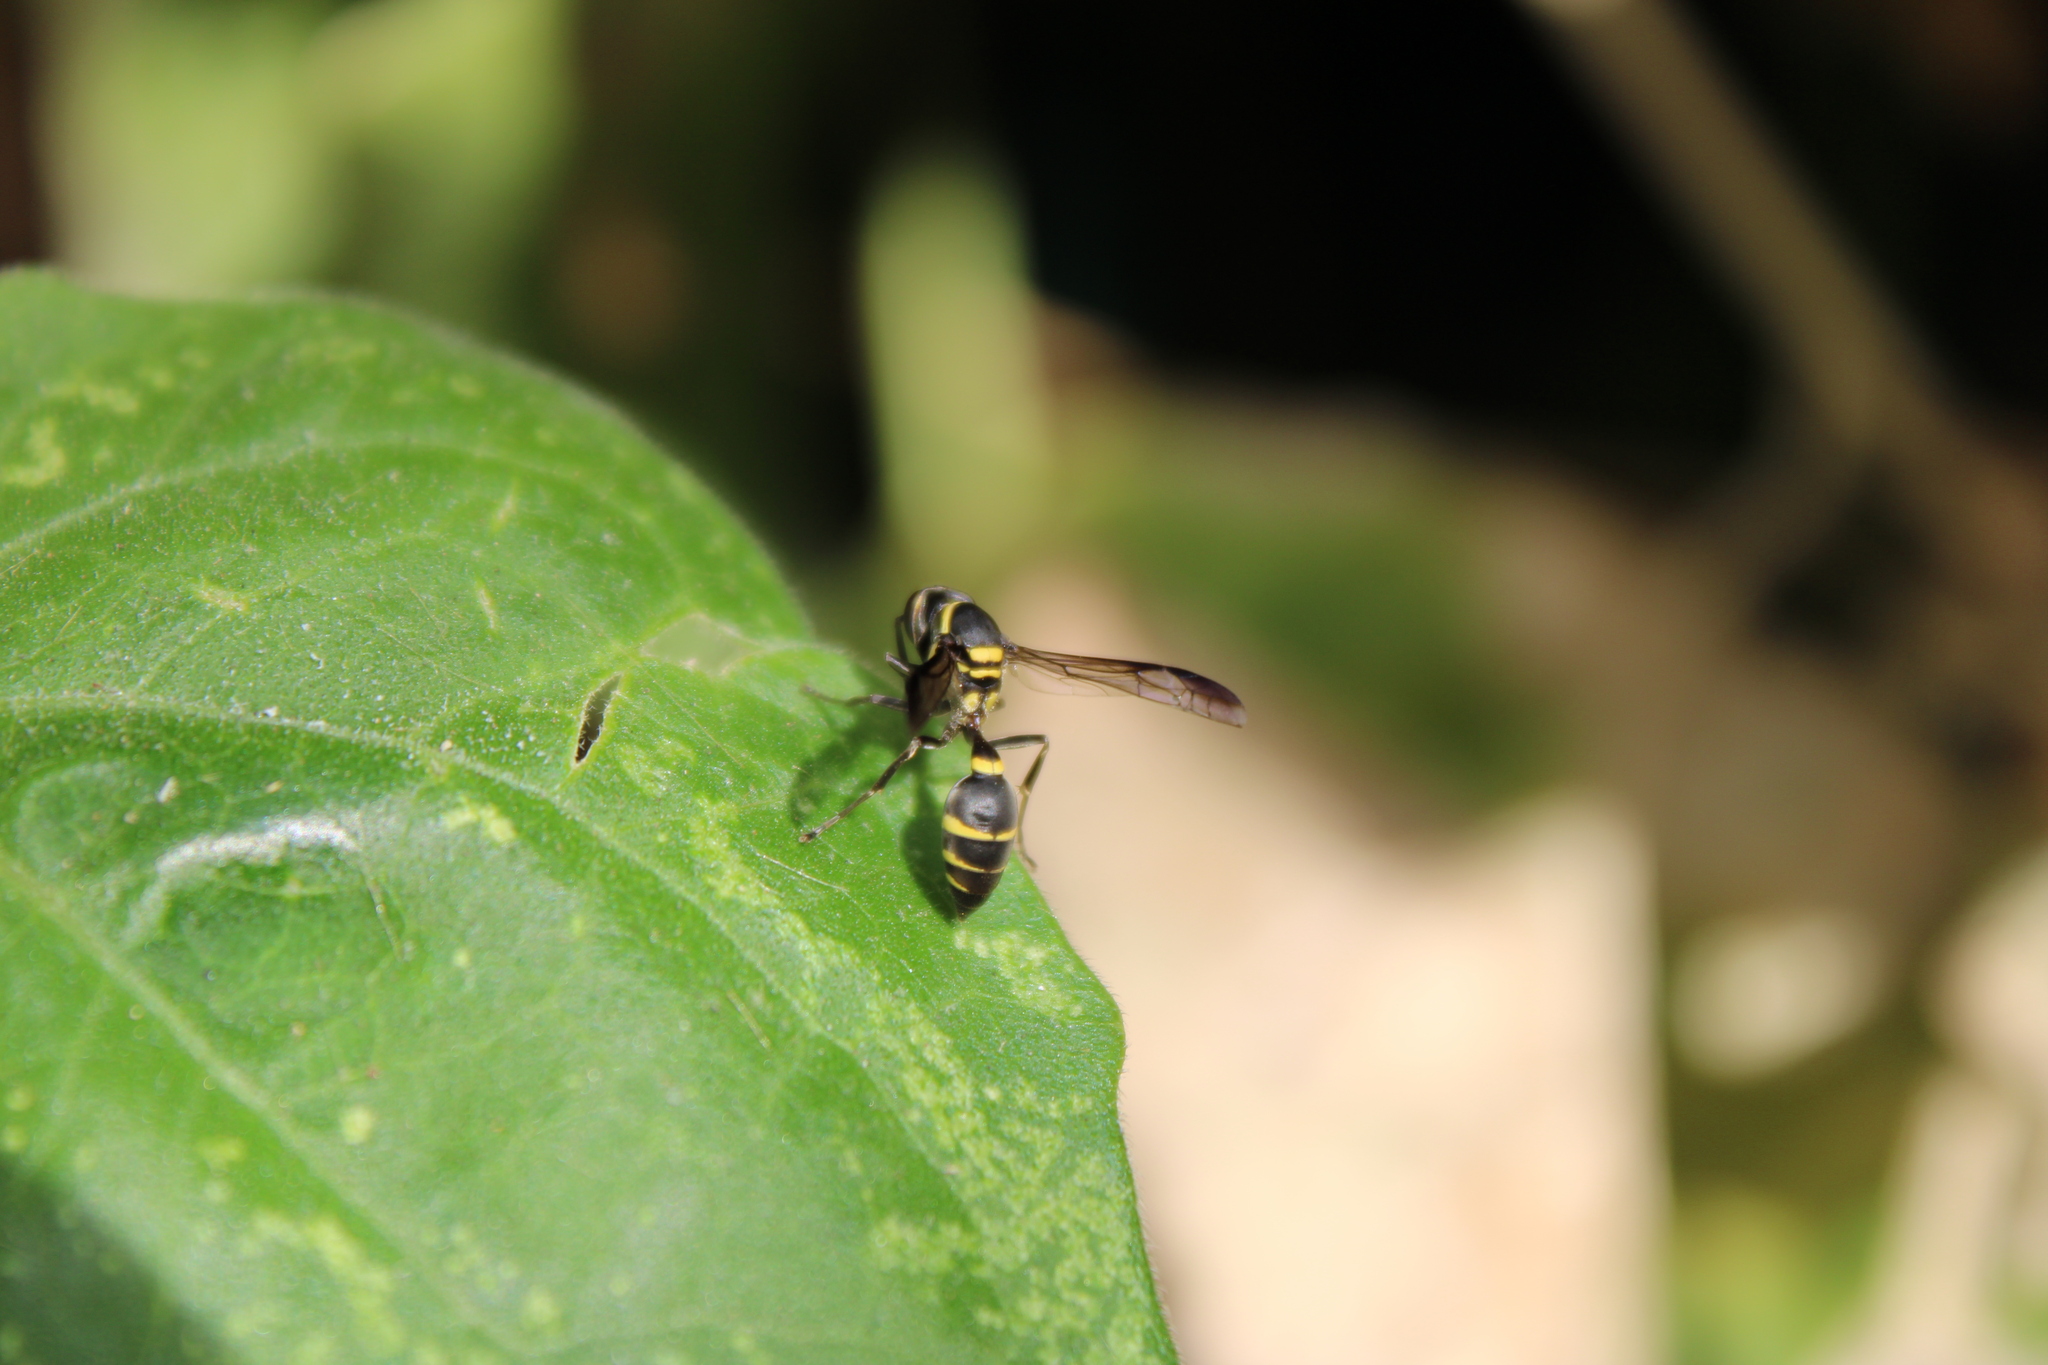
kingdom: Animalia
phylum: Arthropoda
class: Insecta
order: Hymenoptera
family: Eumenidae
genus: Polybia
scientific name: Polybia occidentalis
